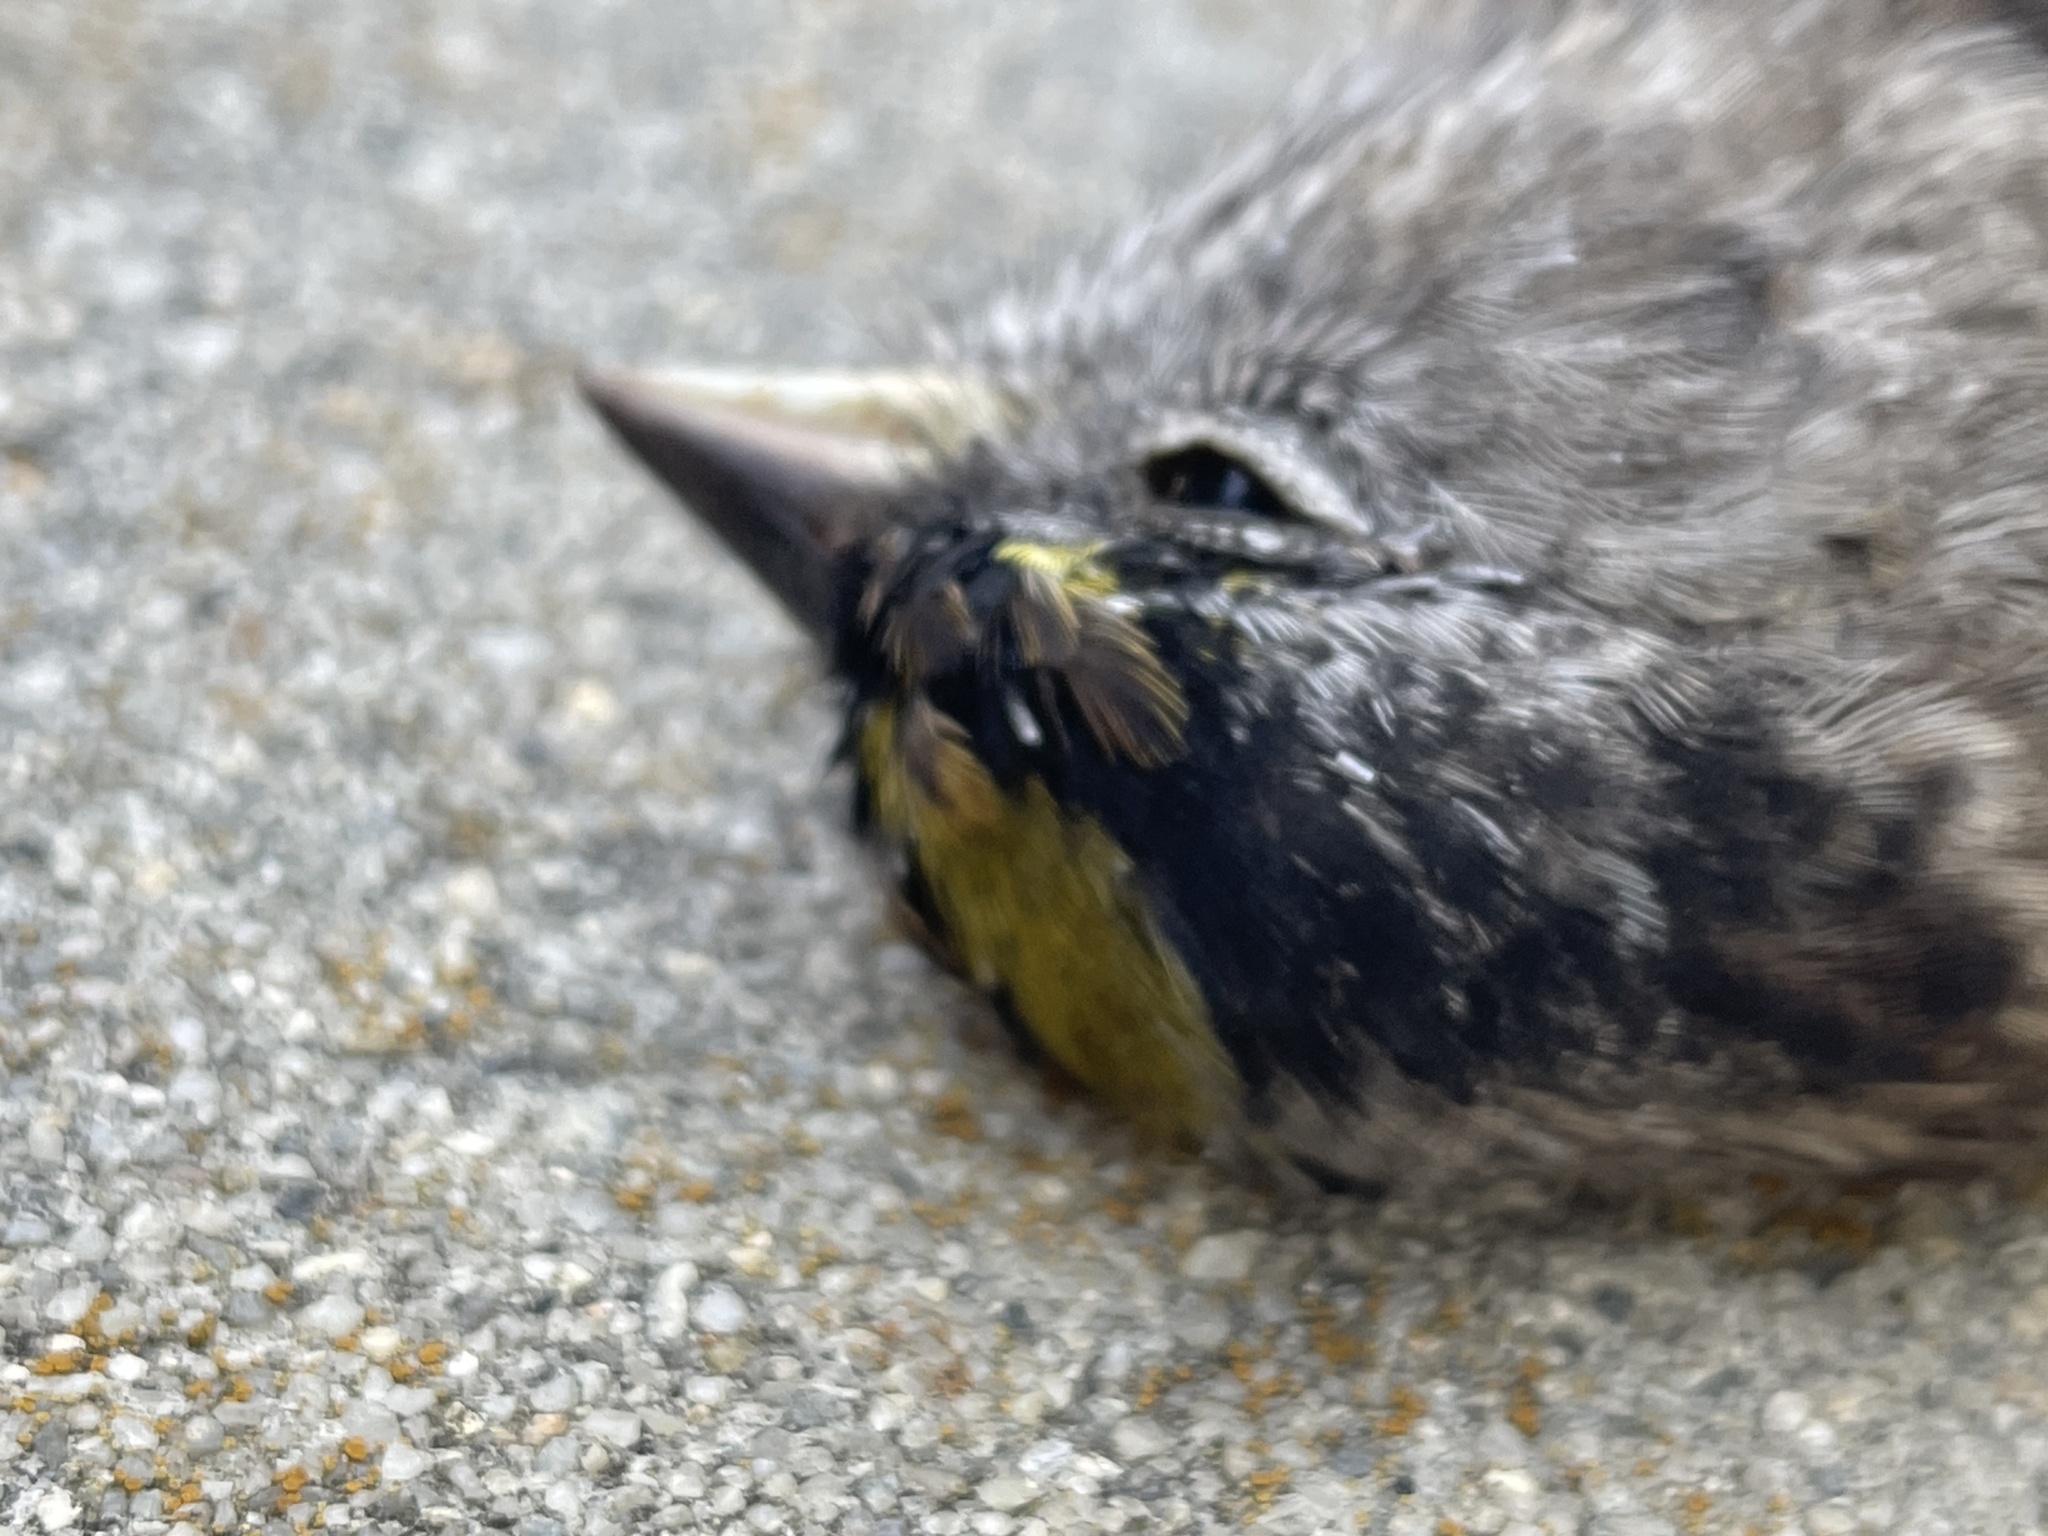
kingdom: Animalia
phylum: Chordata
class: Aves
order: Passeriformes
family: Passerellidae
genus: Zonotrichia
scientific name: Zonotrichia atricapilla
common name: Golden-crowned sparrow
